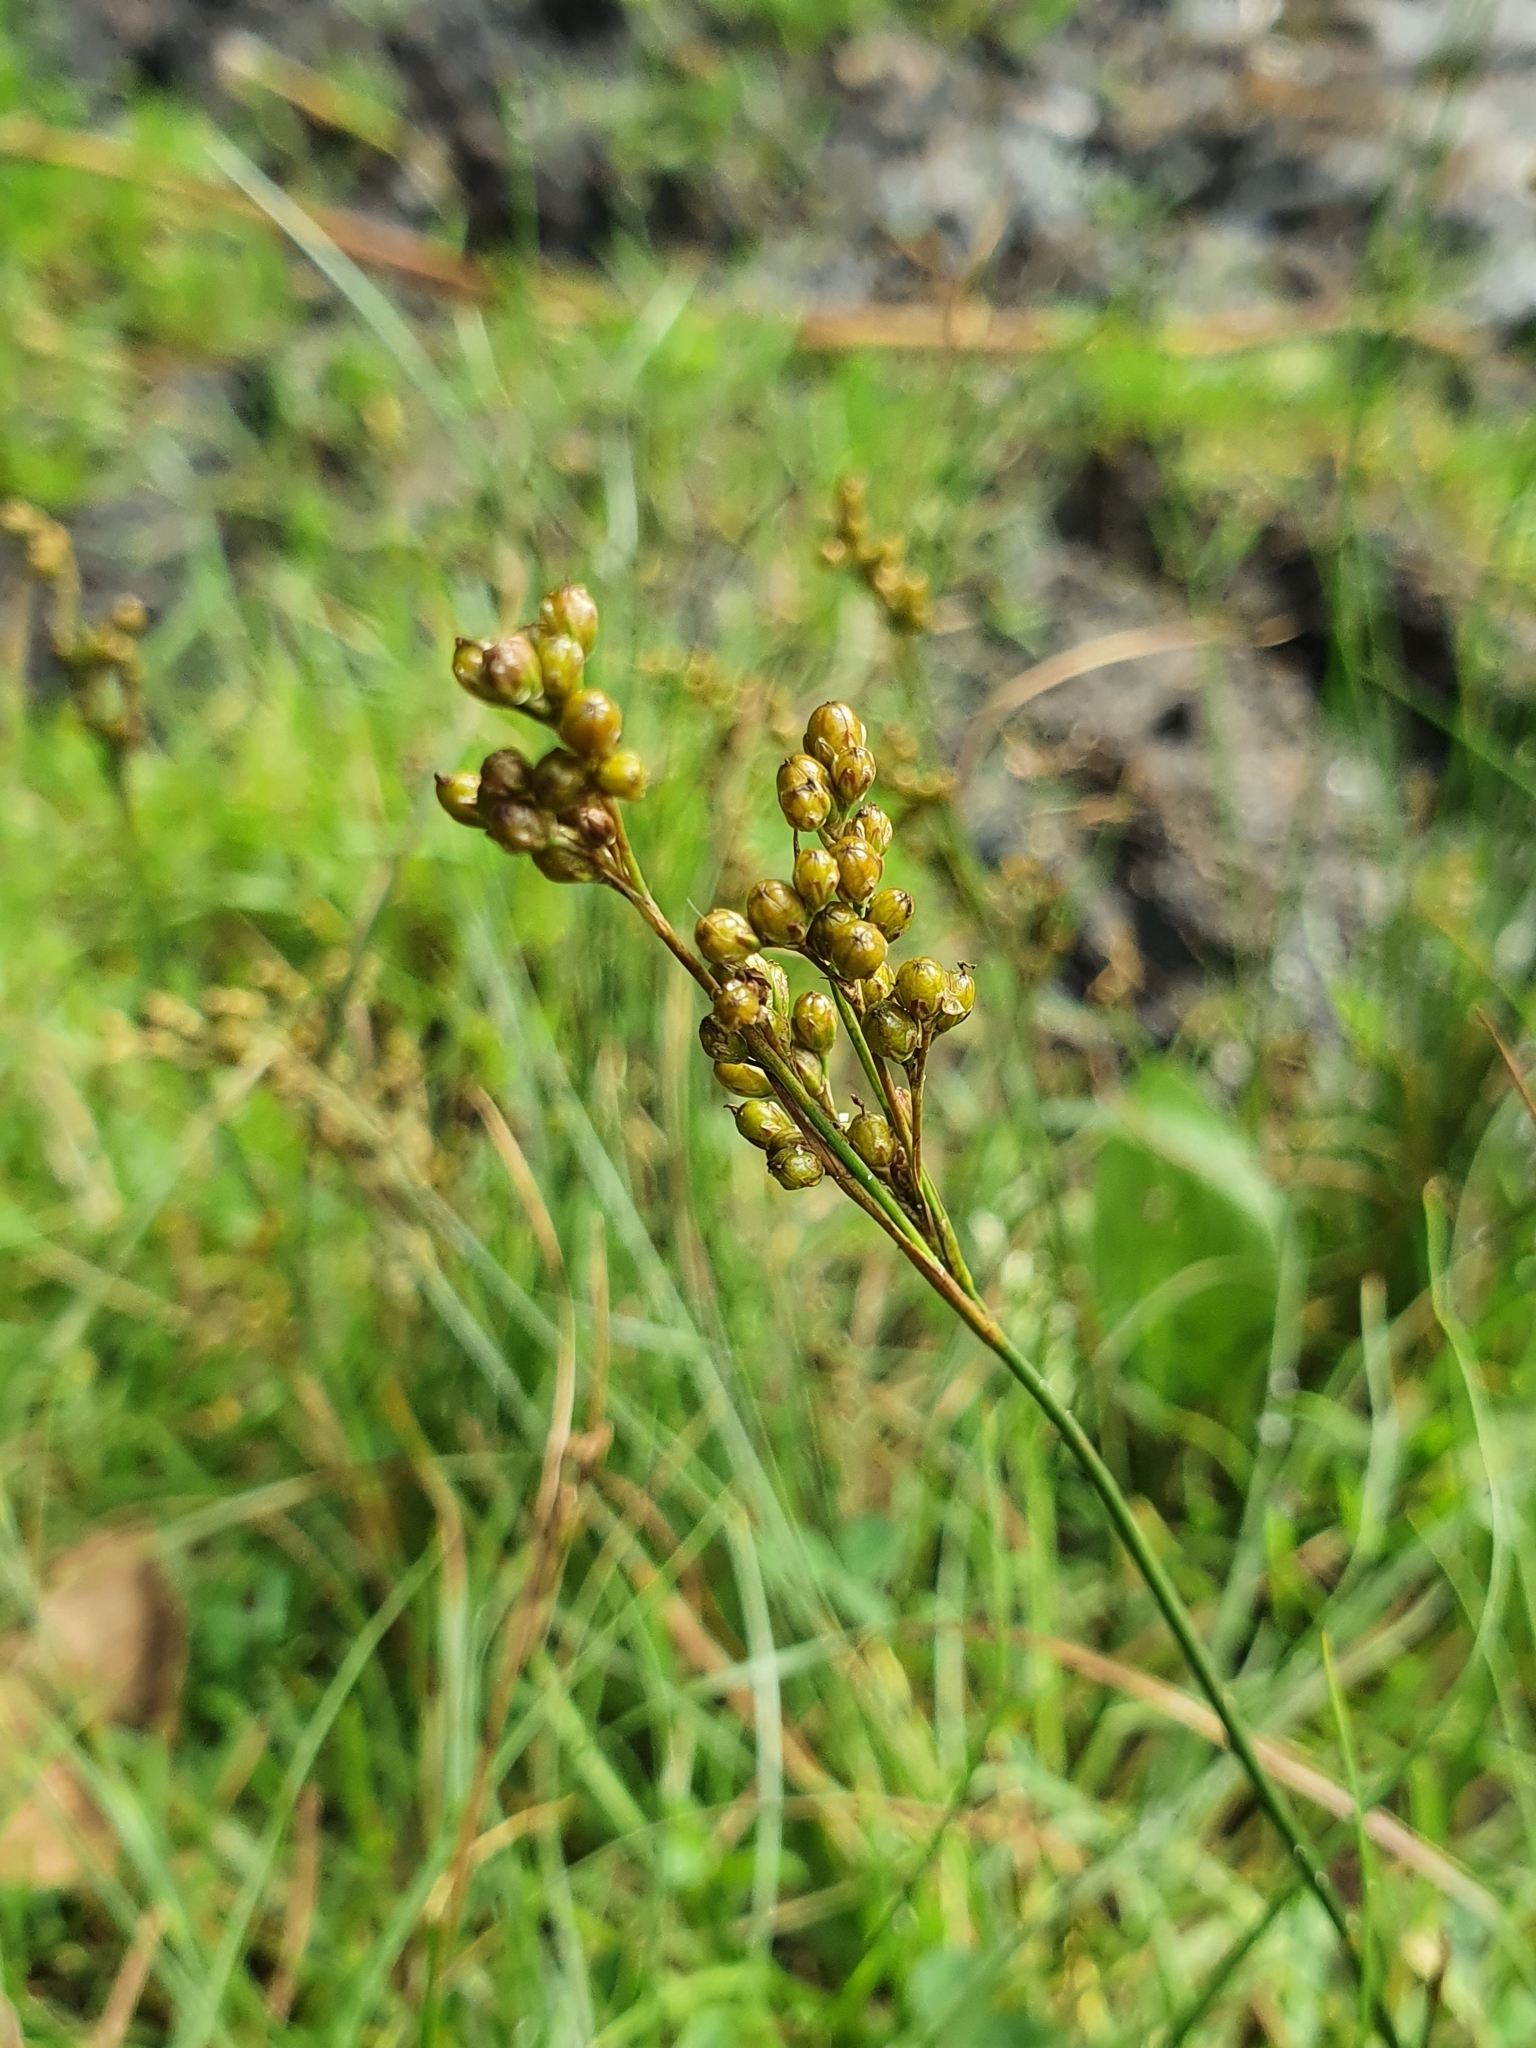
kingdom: Plantae
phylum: Tracheophyta
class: Liliopsida
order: Poales
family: Juncaceae
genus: Juncus
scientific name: Juncus compressus
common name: Round-fruited rush
